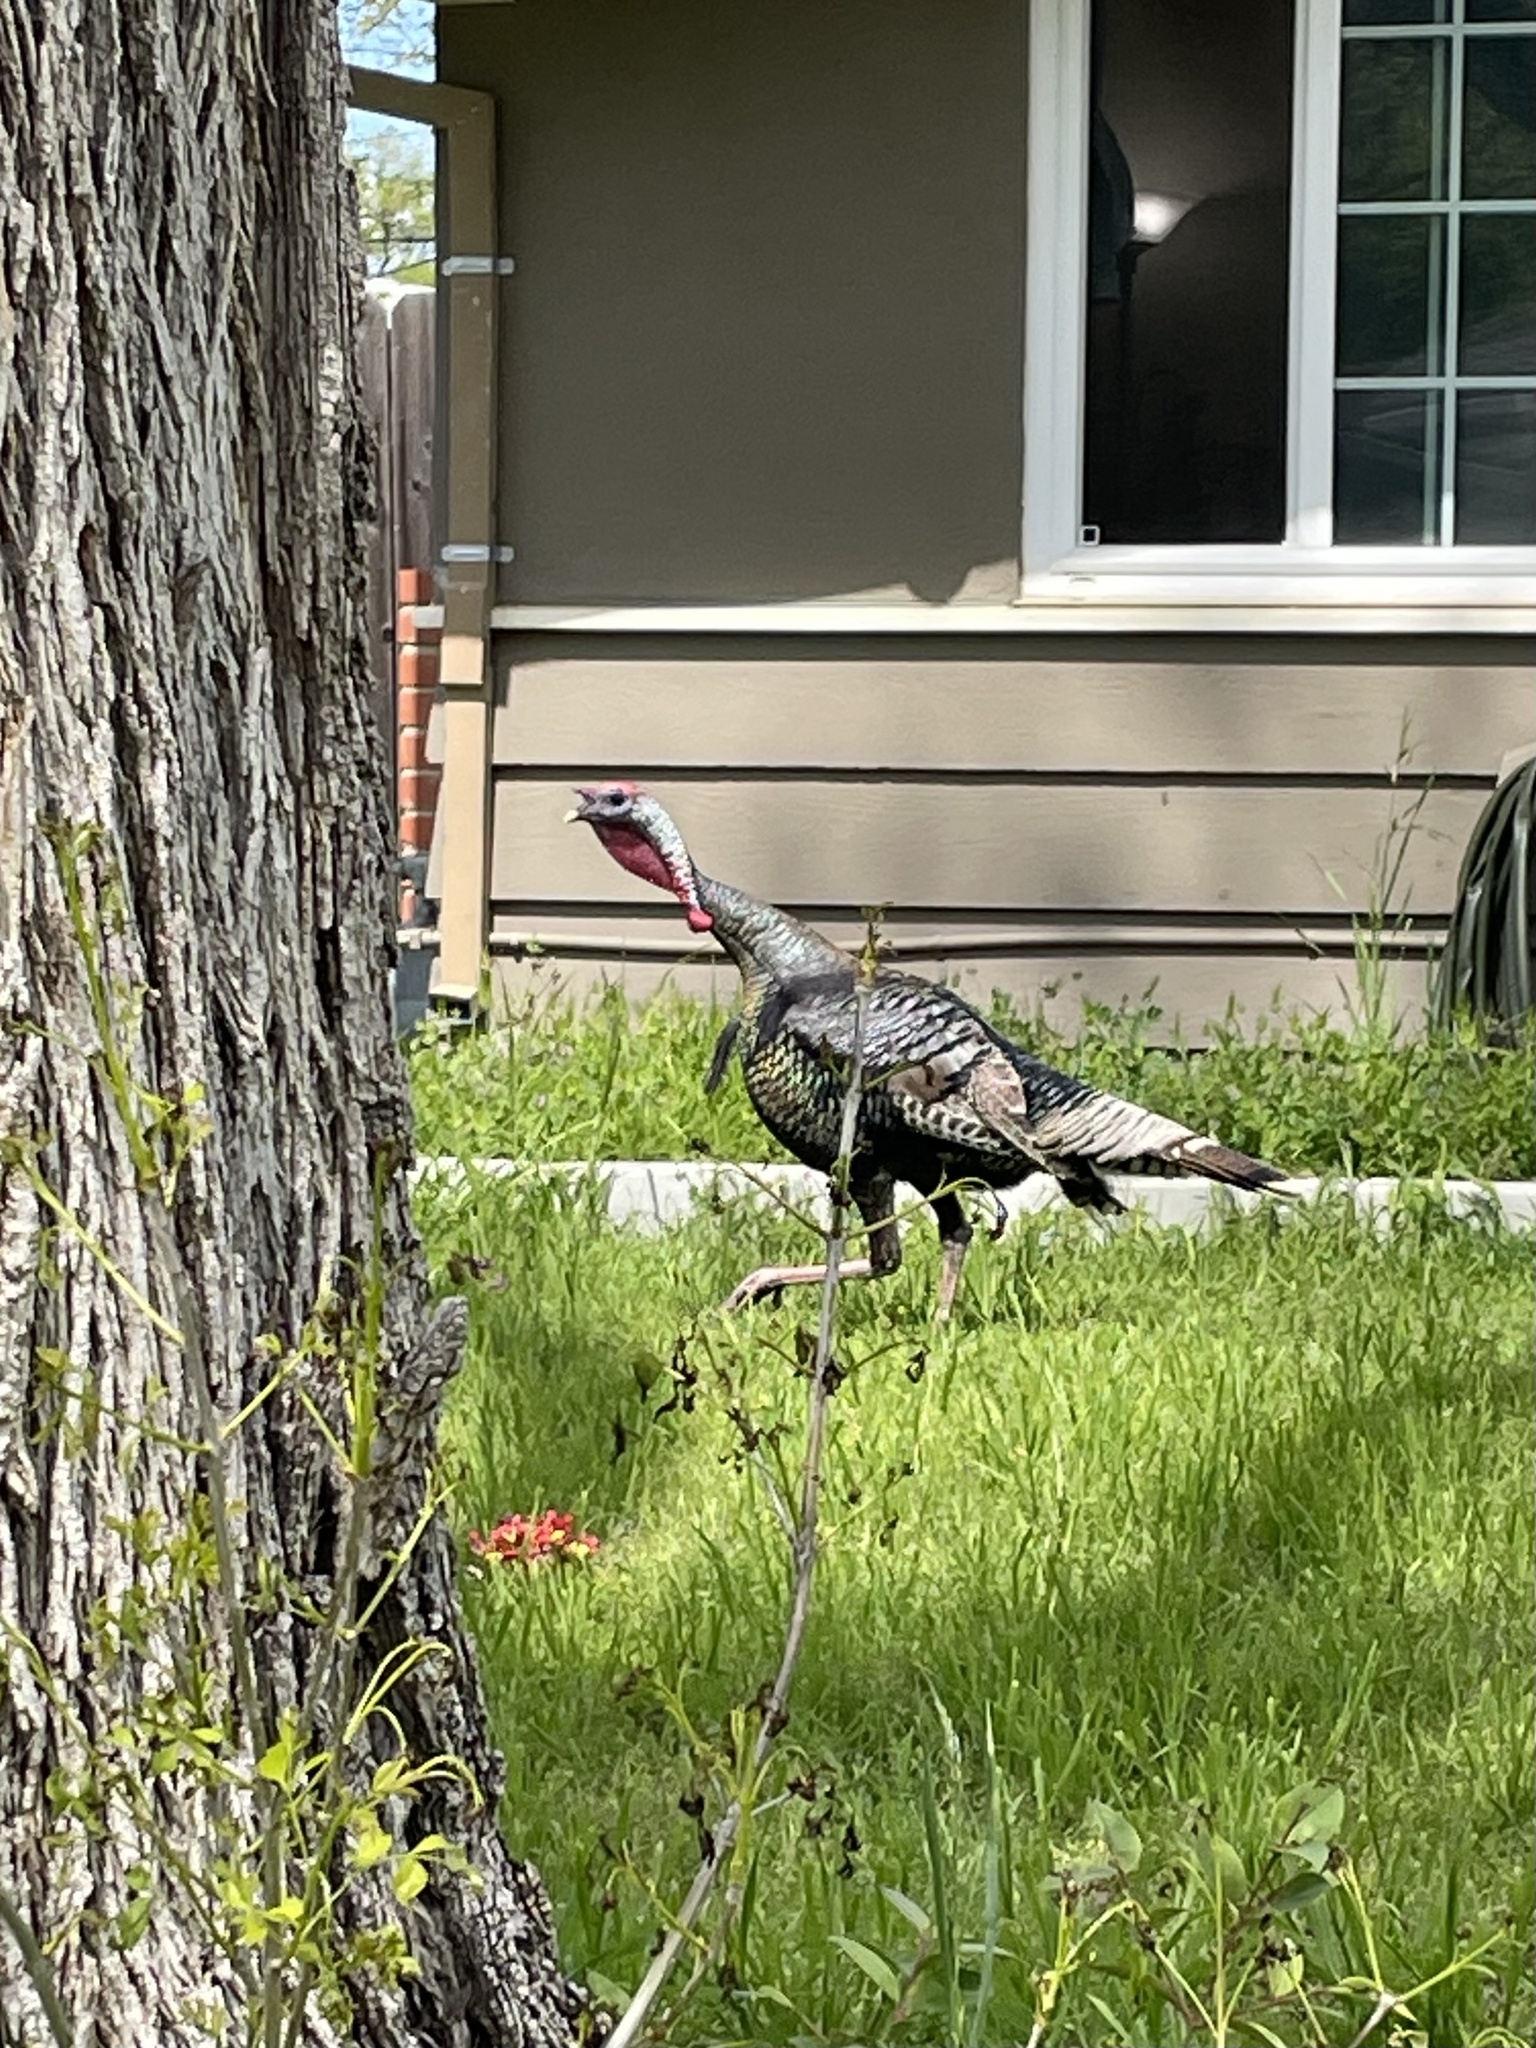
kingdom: Animalia
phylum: Chordata
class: Aves
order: Galliformes
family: Phasianidae
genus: Meleagris
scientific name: Meleagris gallopavo
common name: Wild turkey
